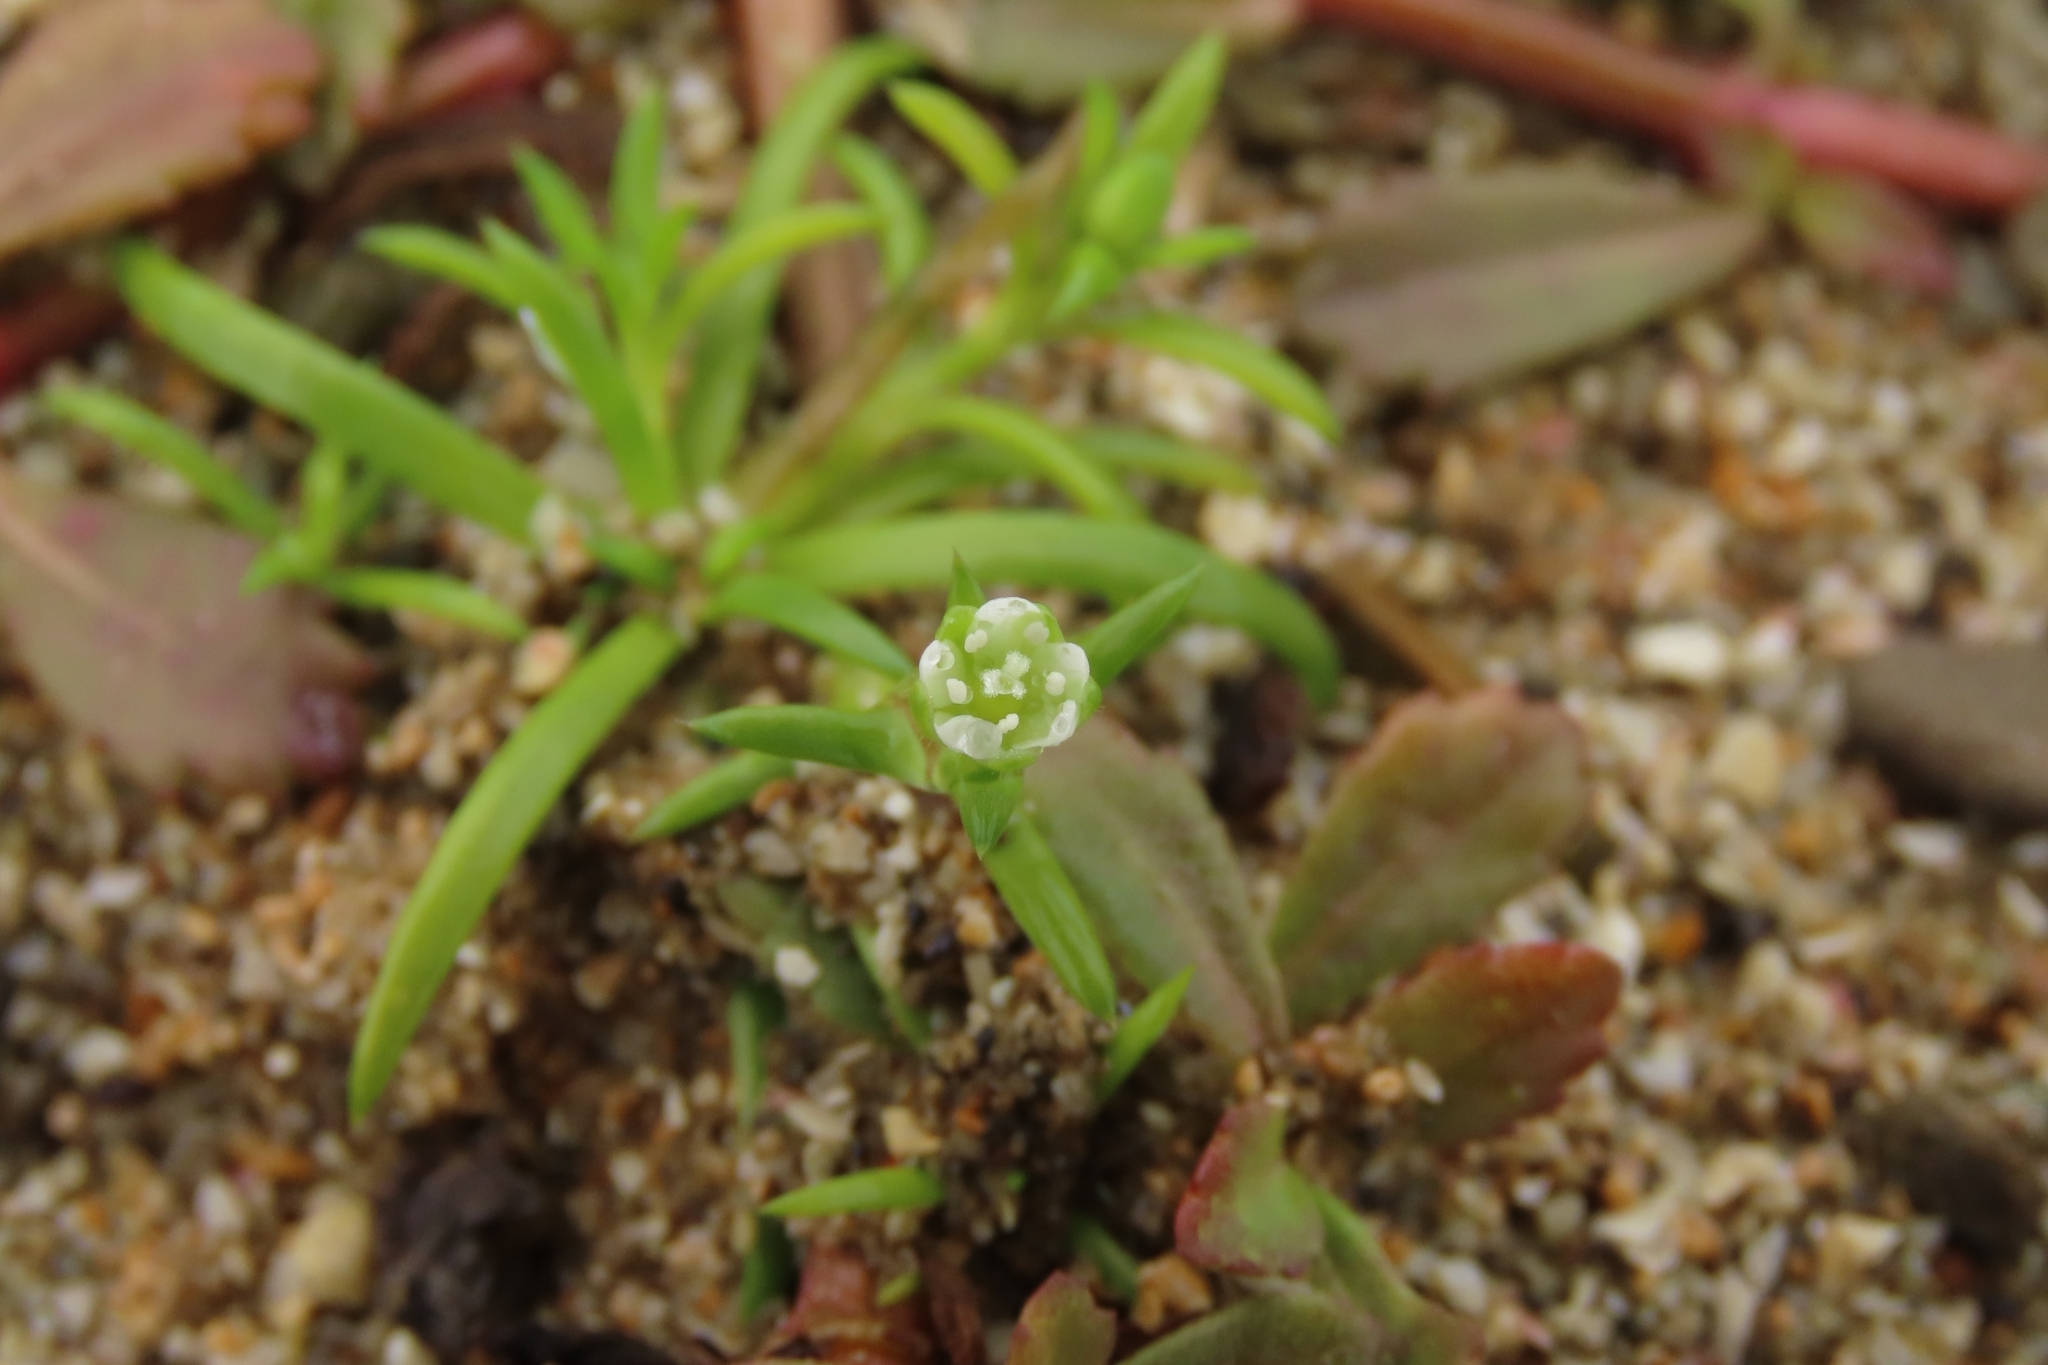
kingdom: Plantae
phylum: Tracheophyta
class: Magnoliopsida
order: Caryophyllales
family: Caryophyllaceae
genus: Sagina
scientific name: Sagina japonica
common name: Japanese pearlwort
